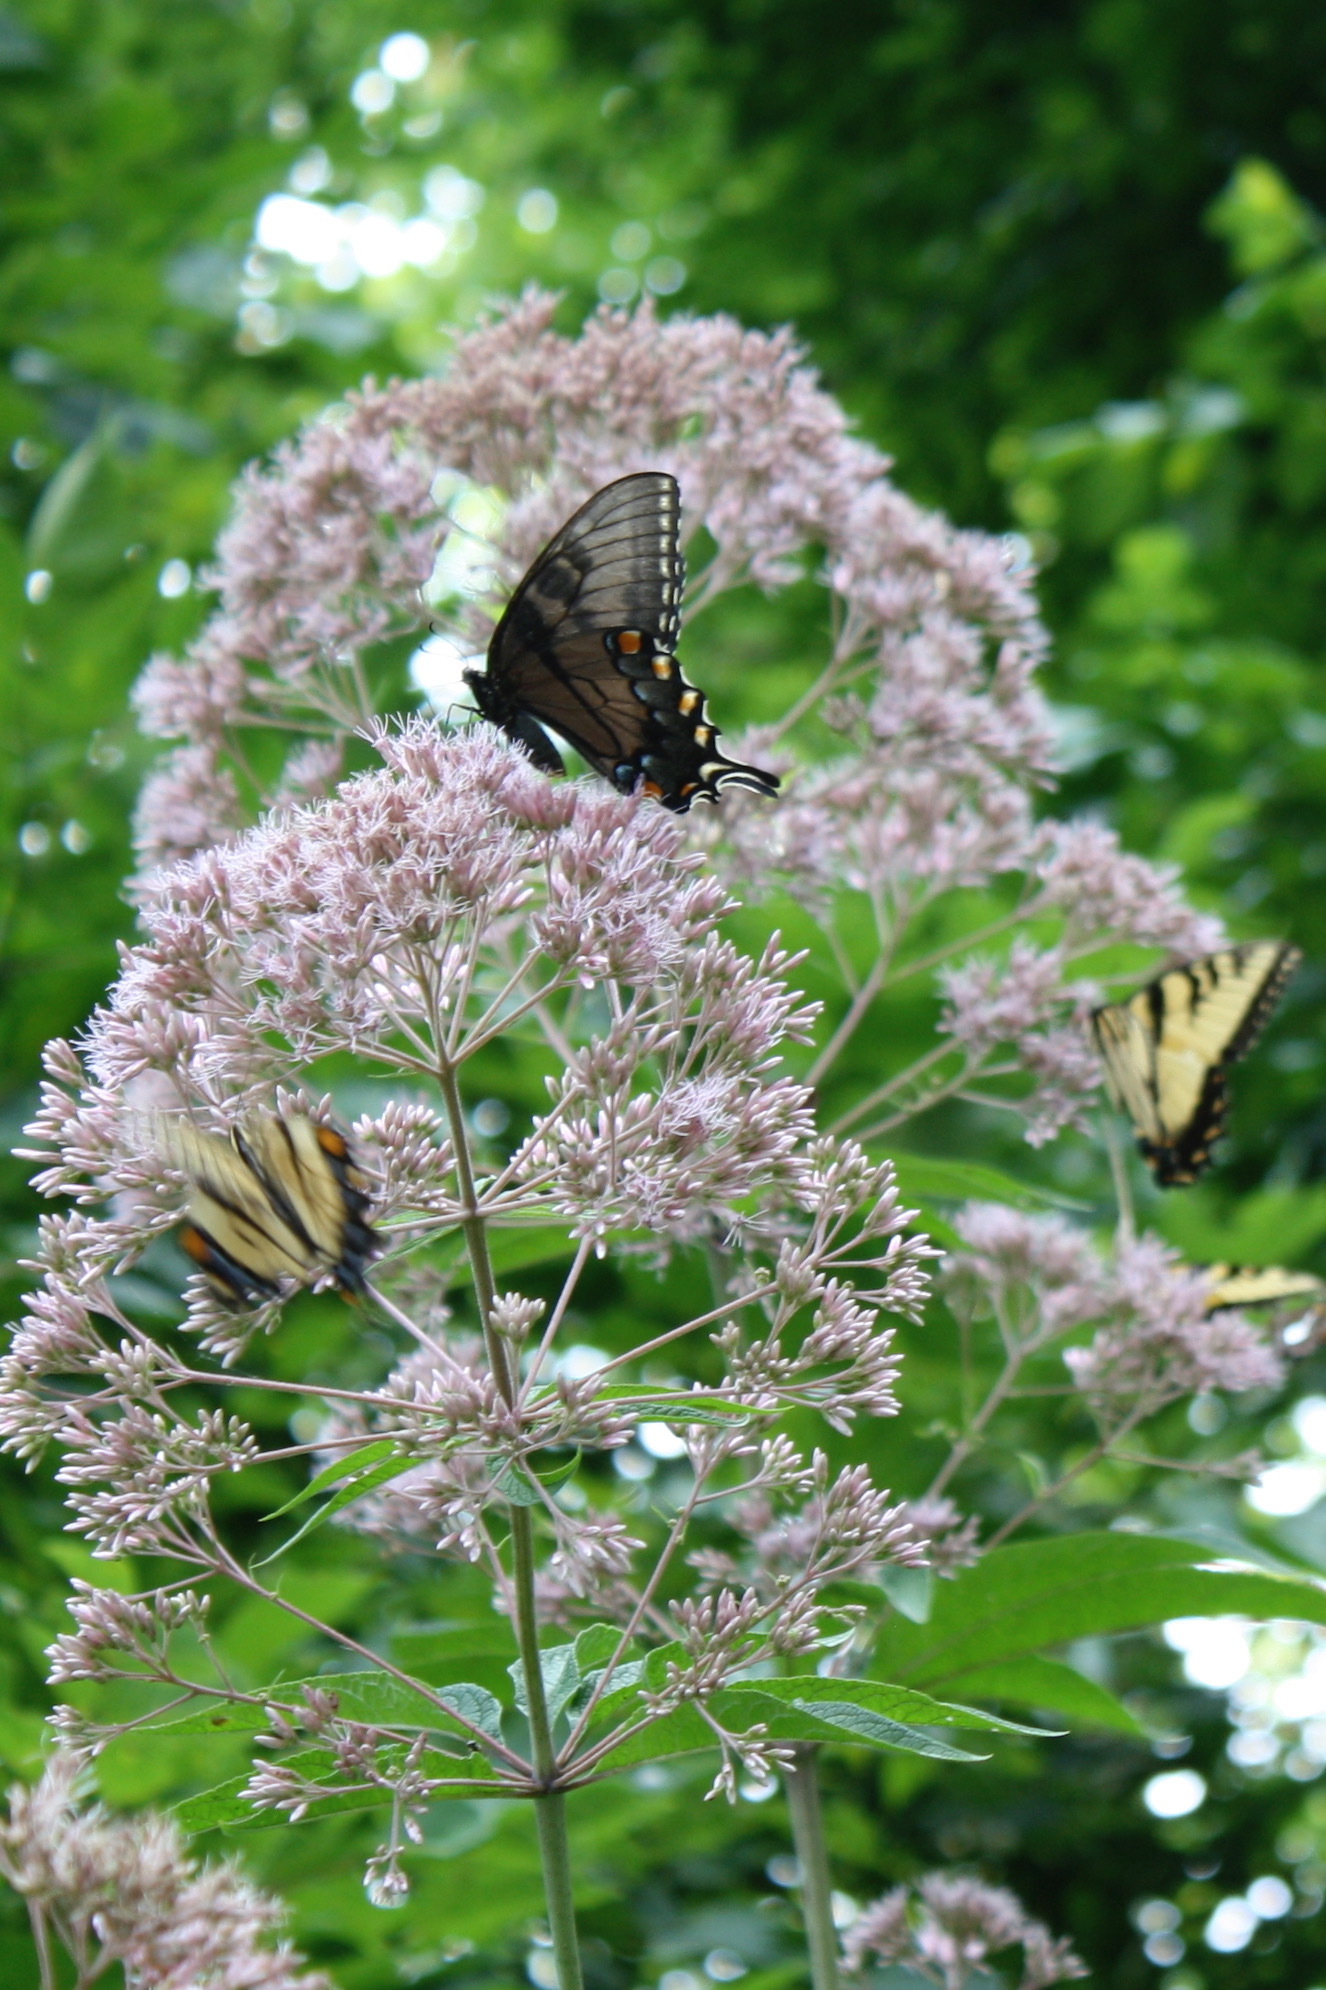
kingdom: Animalia
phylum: Arthropoda
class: Insecta
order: Lepidoptera
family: Papilionidae
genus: Papilio
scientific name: Papilio glaucus
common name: Tiger swallowtail
